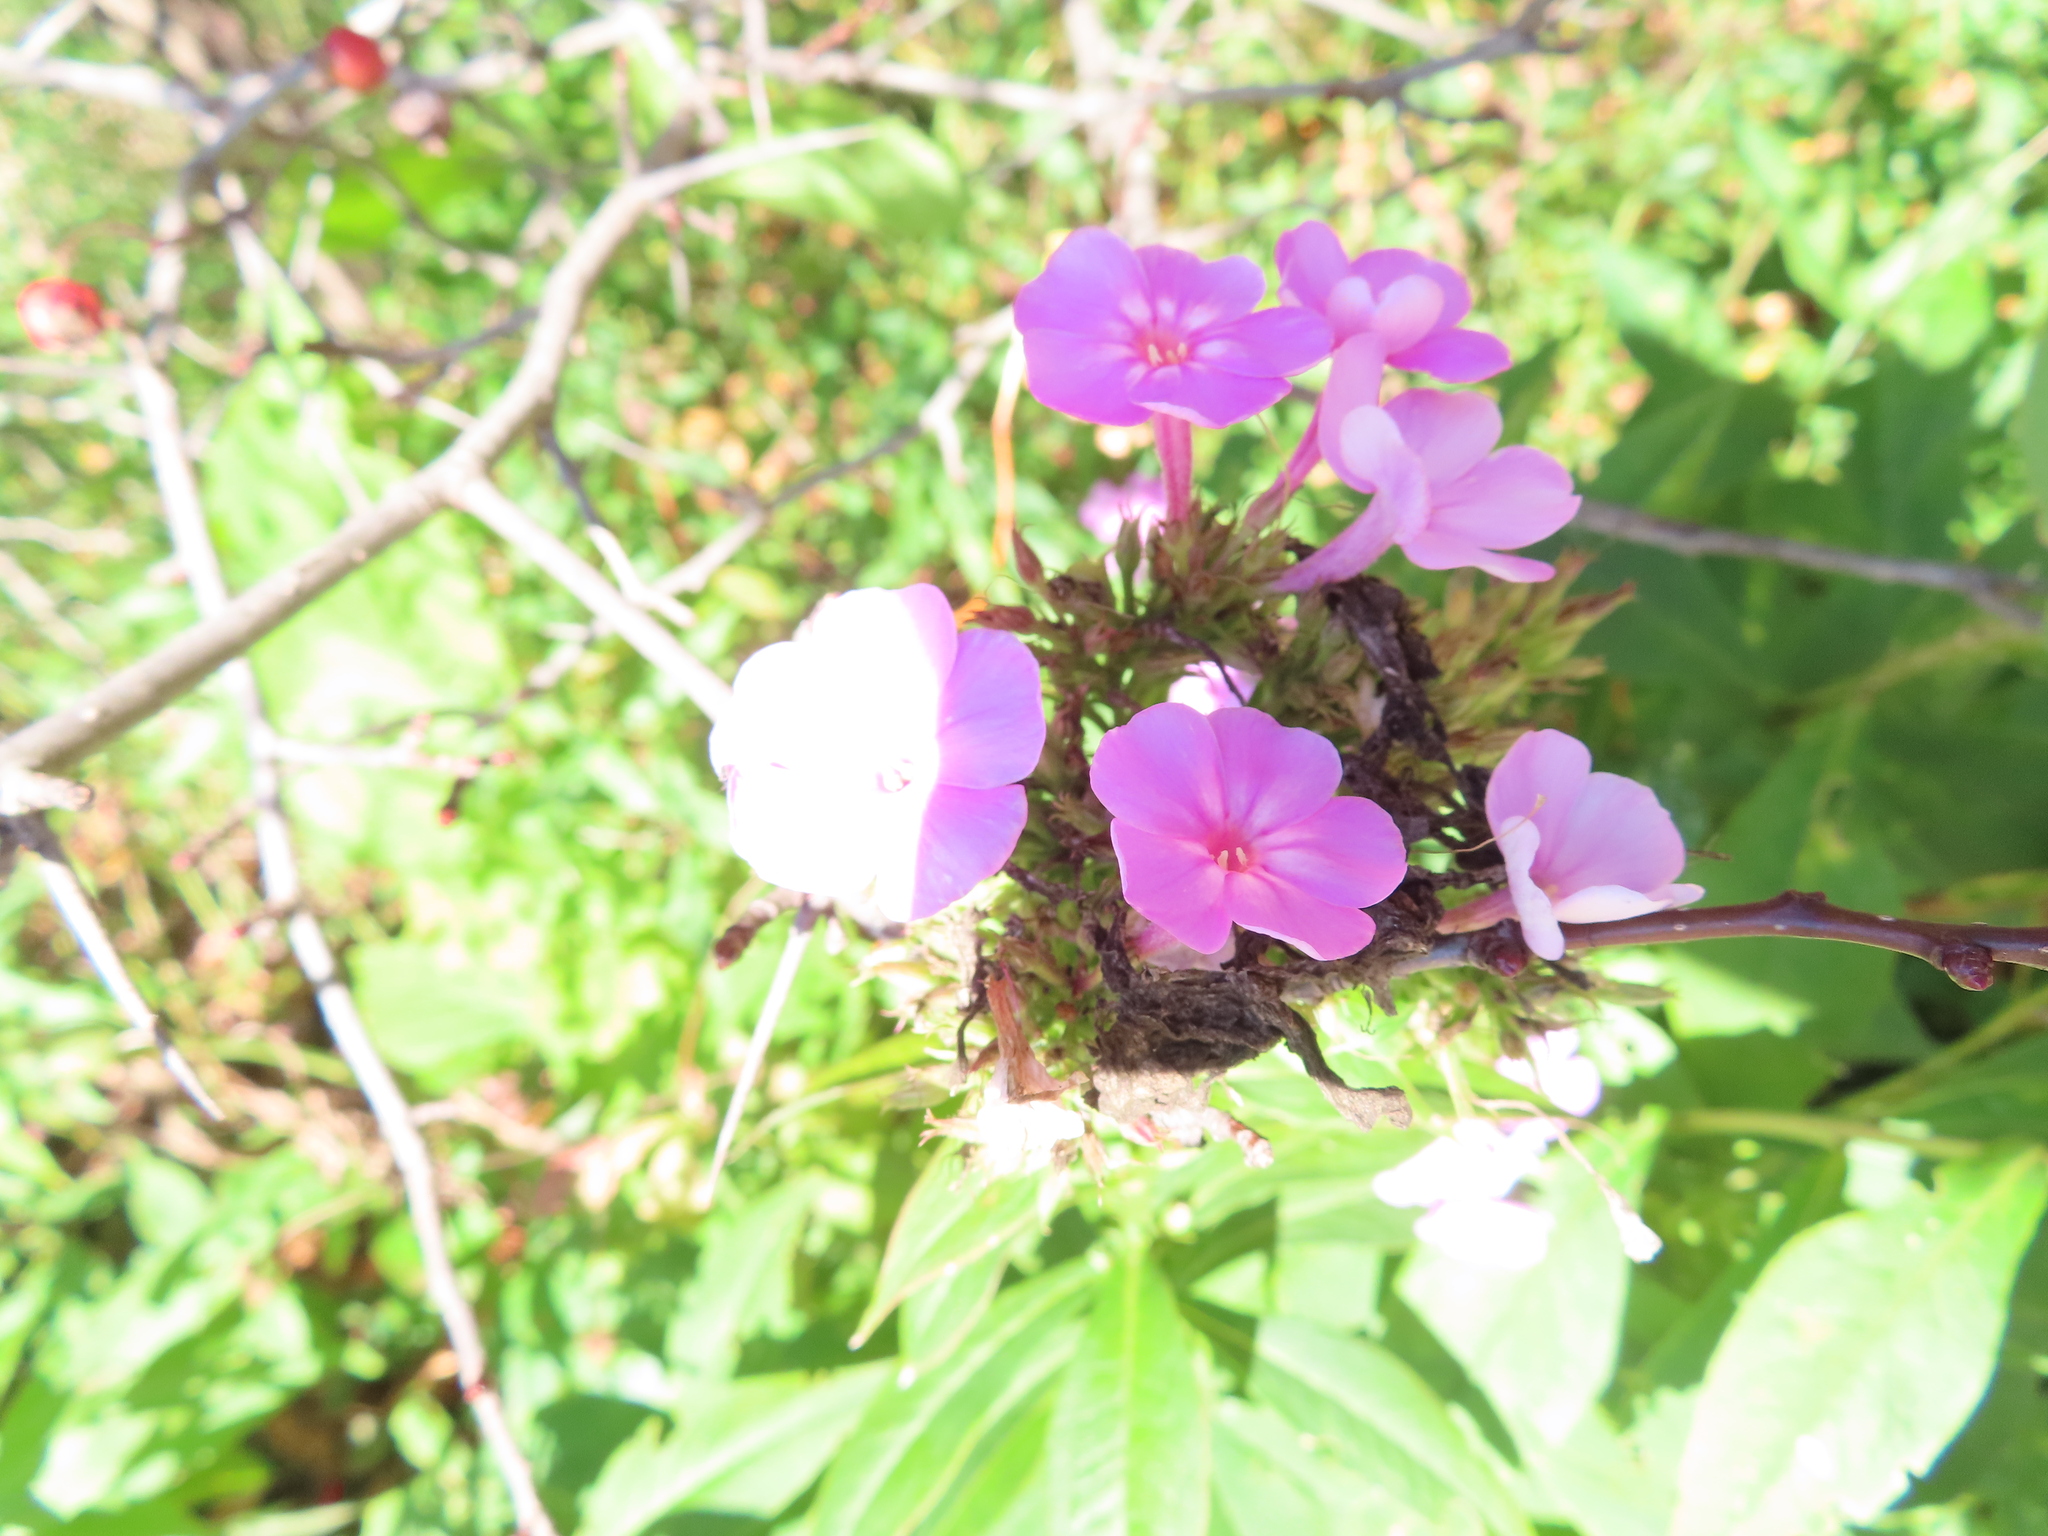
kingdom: Plantae
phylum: Tracheophyta
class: Magnoliopsida
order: Ericales
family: Polemoniaceae
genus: Phlox
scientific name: Phlox paniculata
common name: Fall phlox
